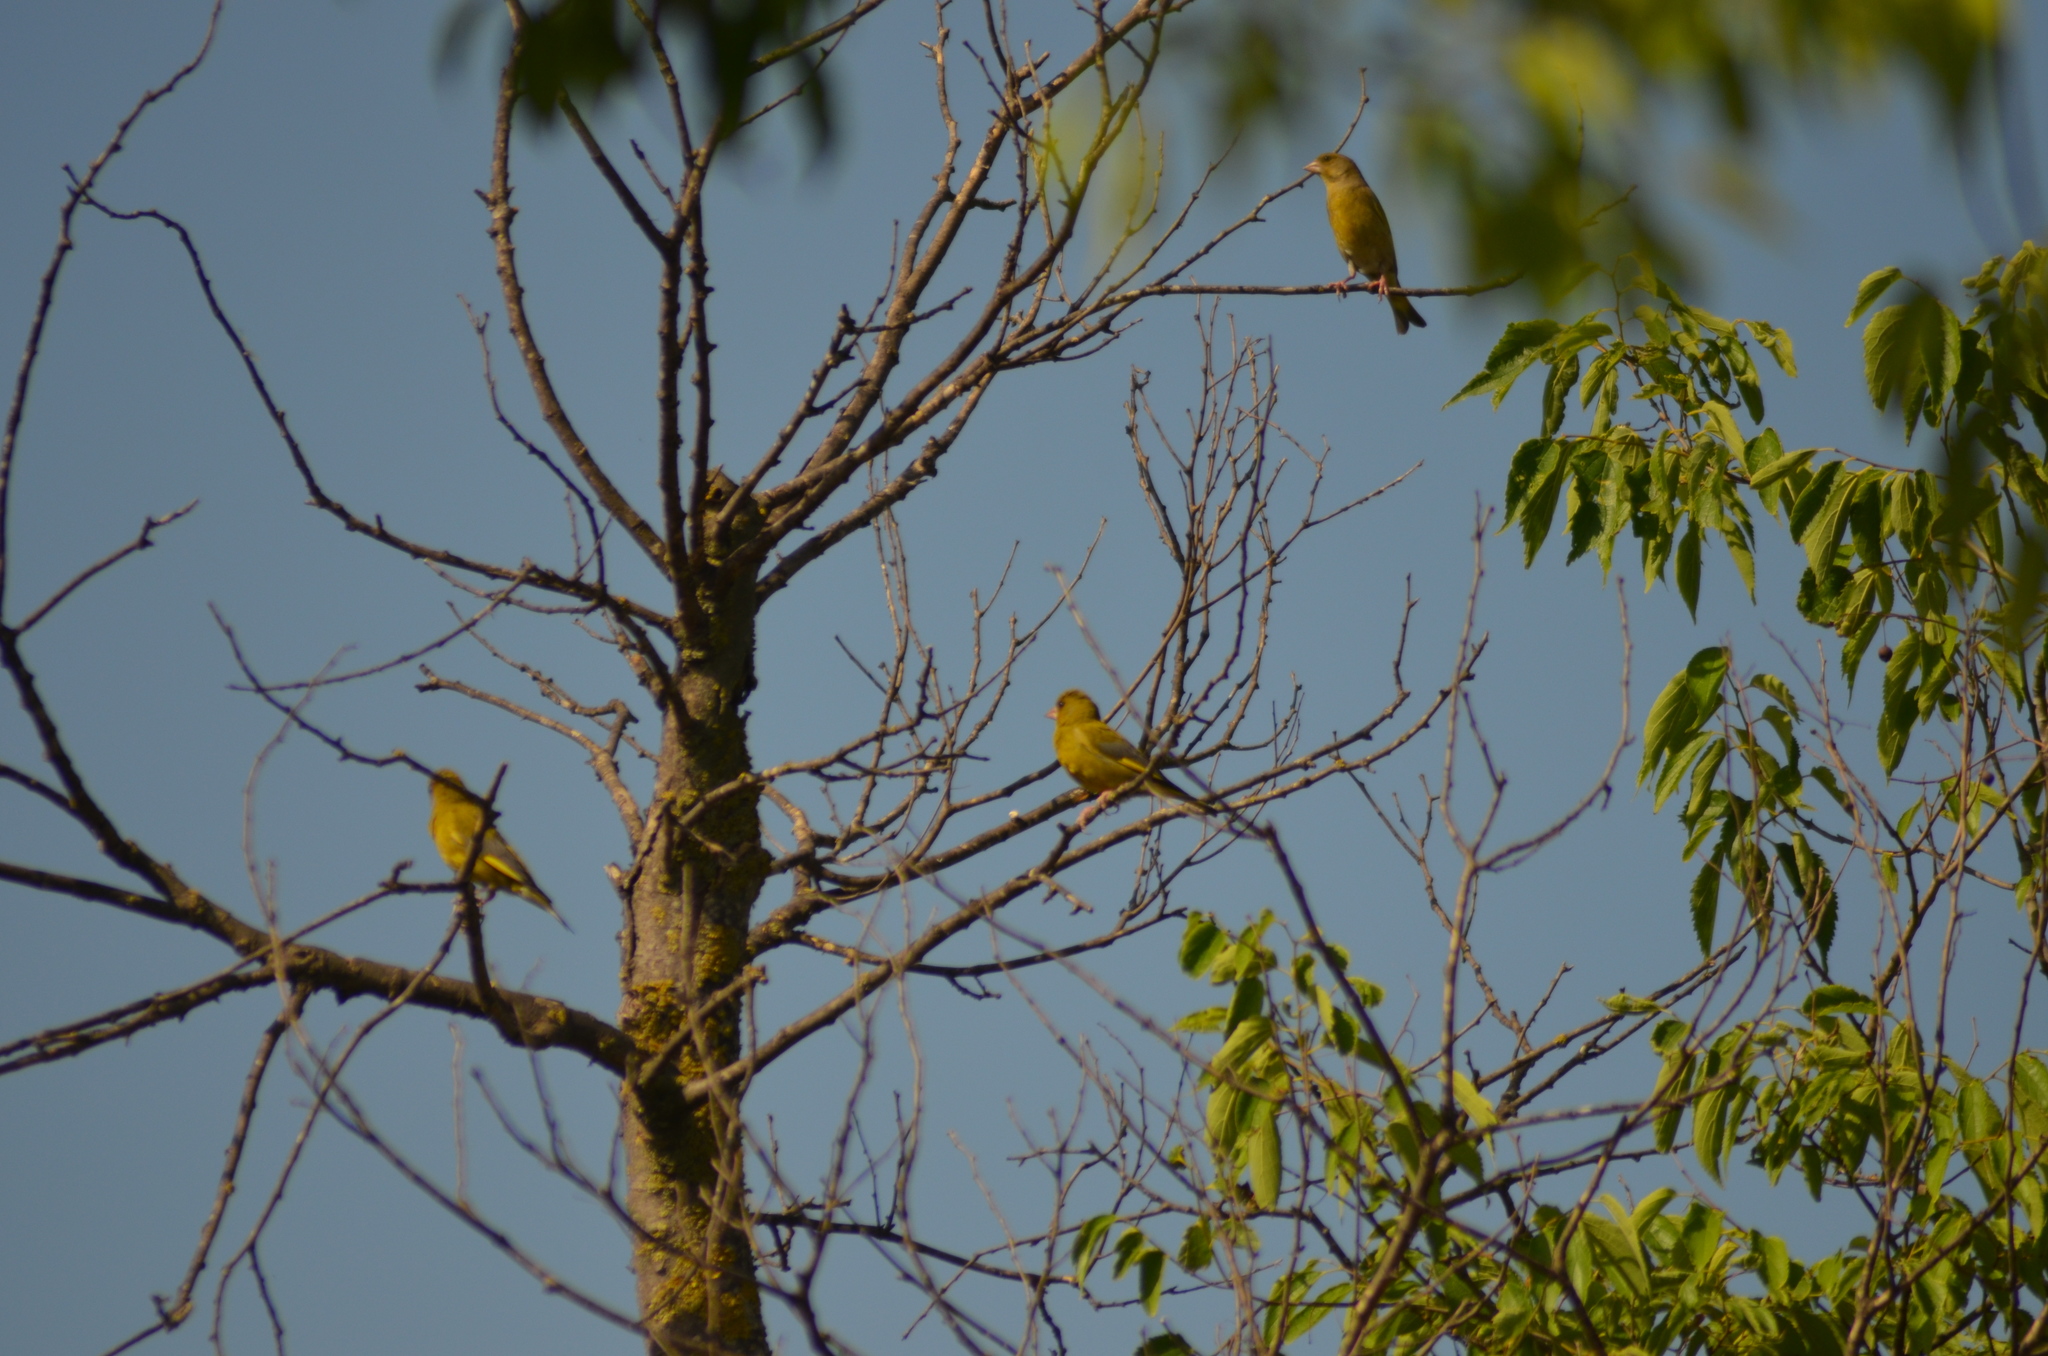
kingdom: Plantae
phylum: Tracheophyta
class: Liliopsida
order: Poales
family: Poaceae
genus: Chloris
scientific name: Chloris chloris
